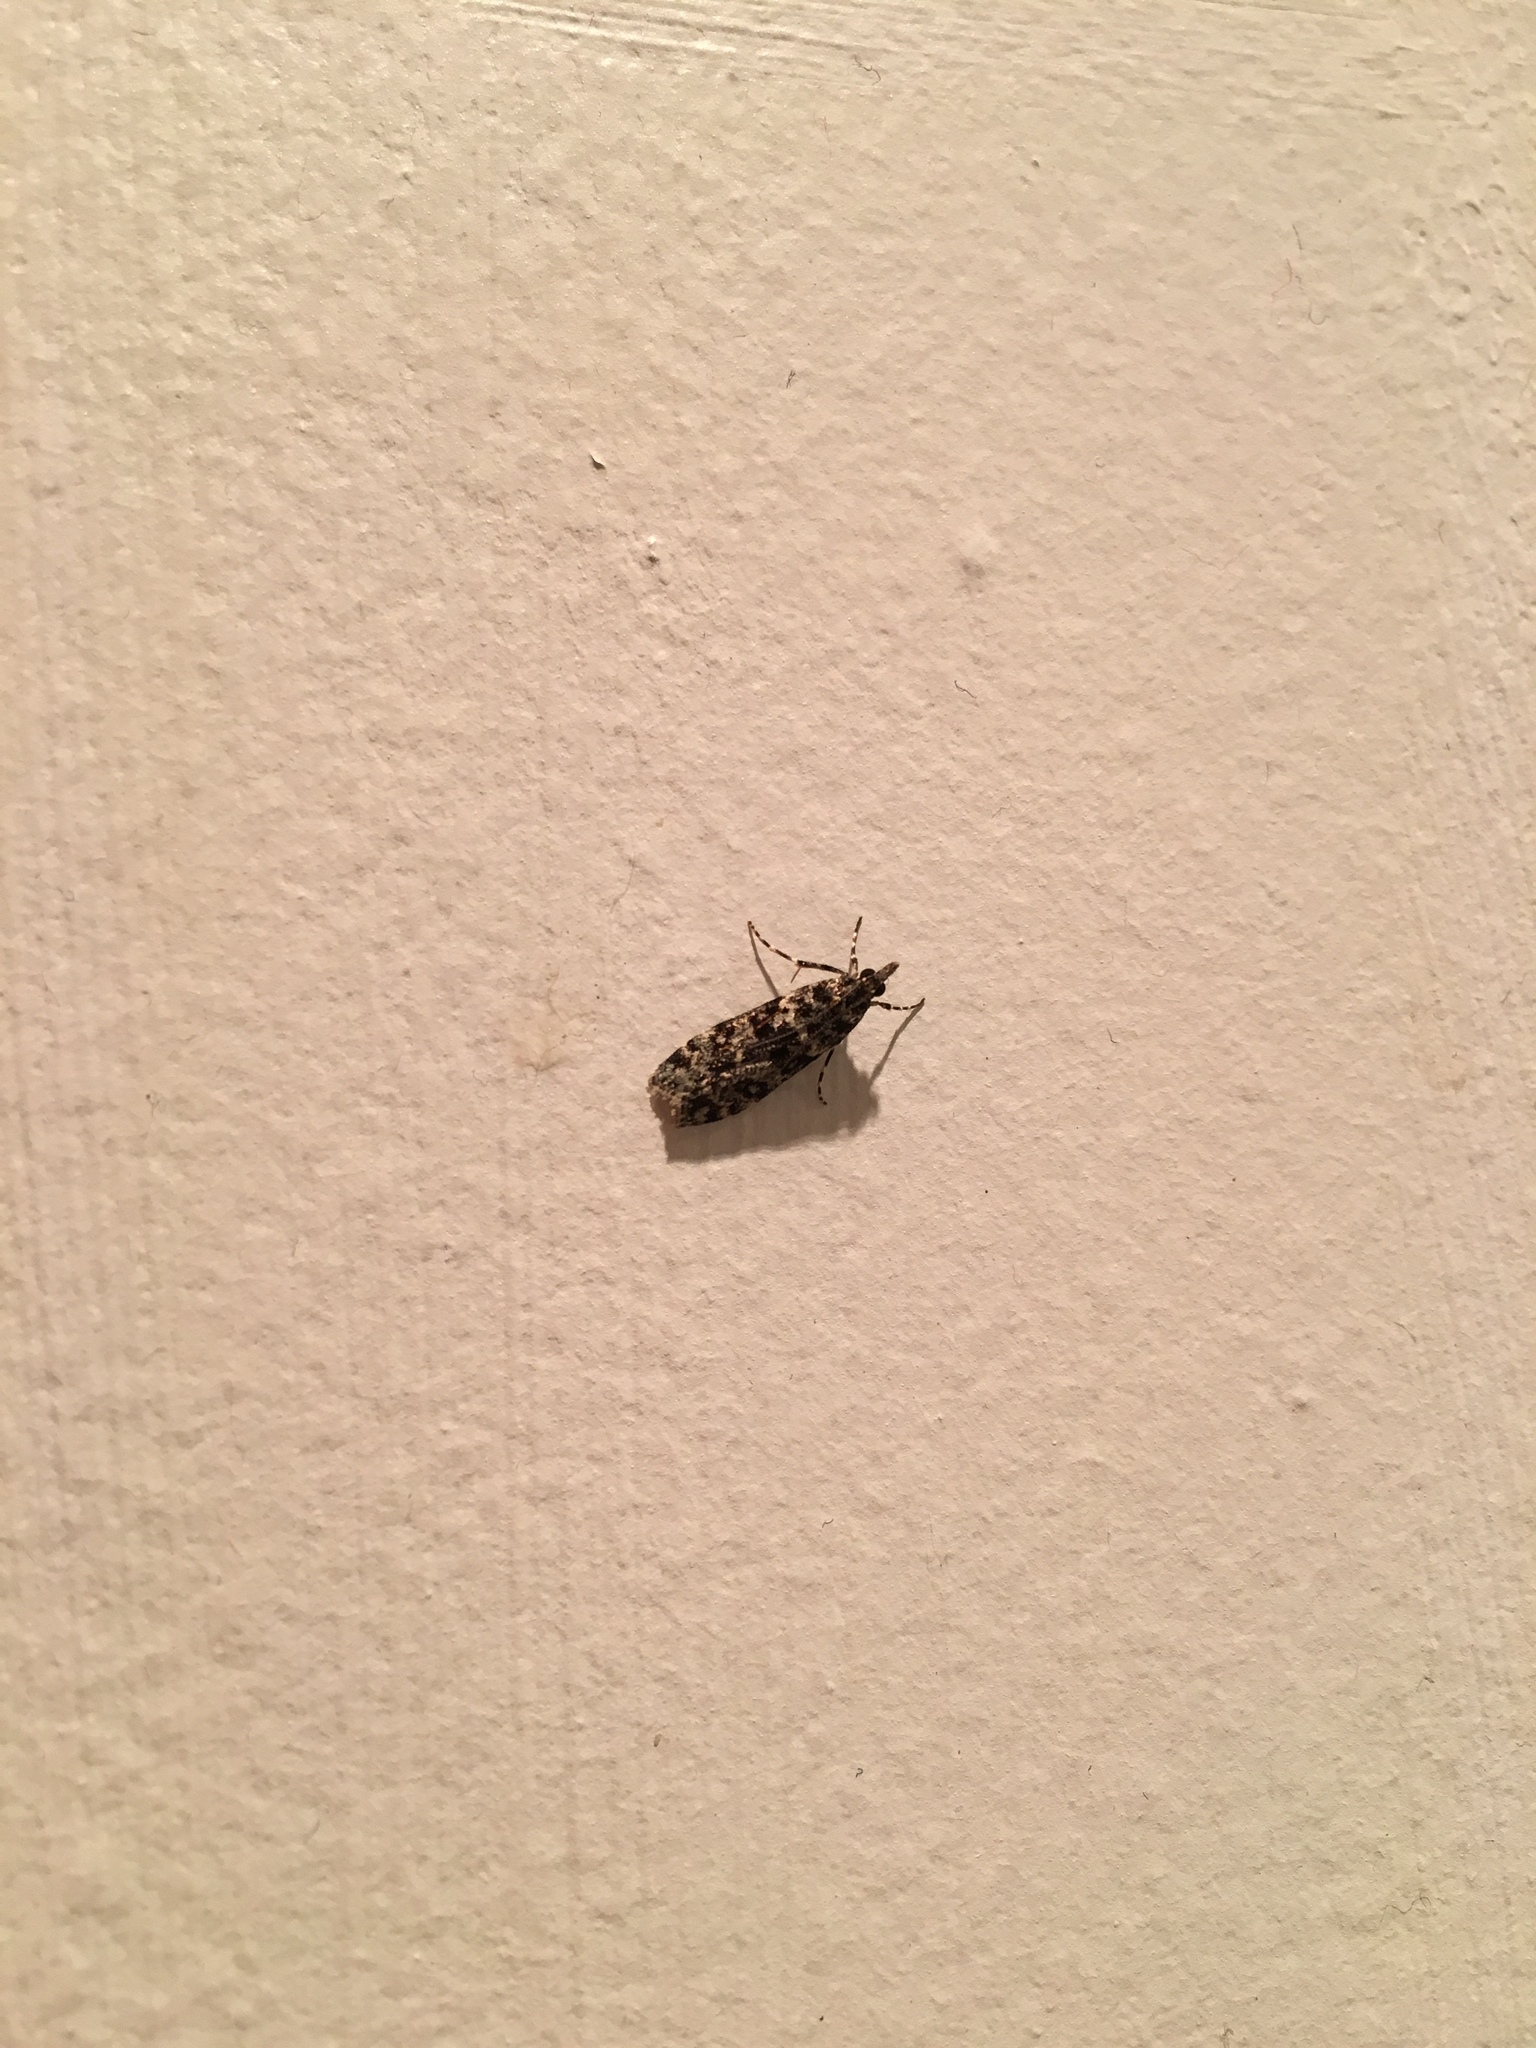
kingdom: Animalia
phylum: Arthropoda
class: Insecta
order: Lepidoptera
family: Crambidae
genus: Eudonia
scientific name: Eudonia philerga
